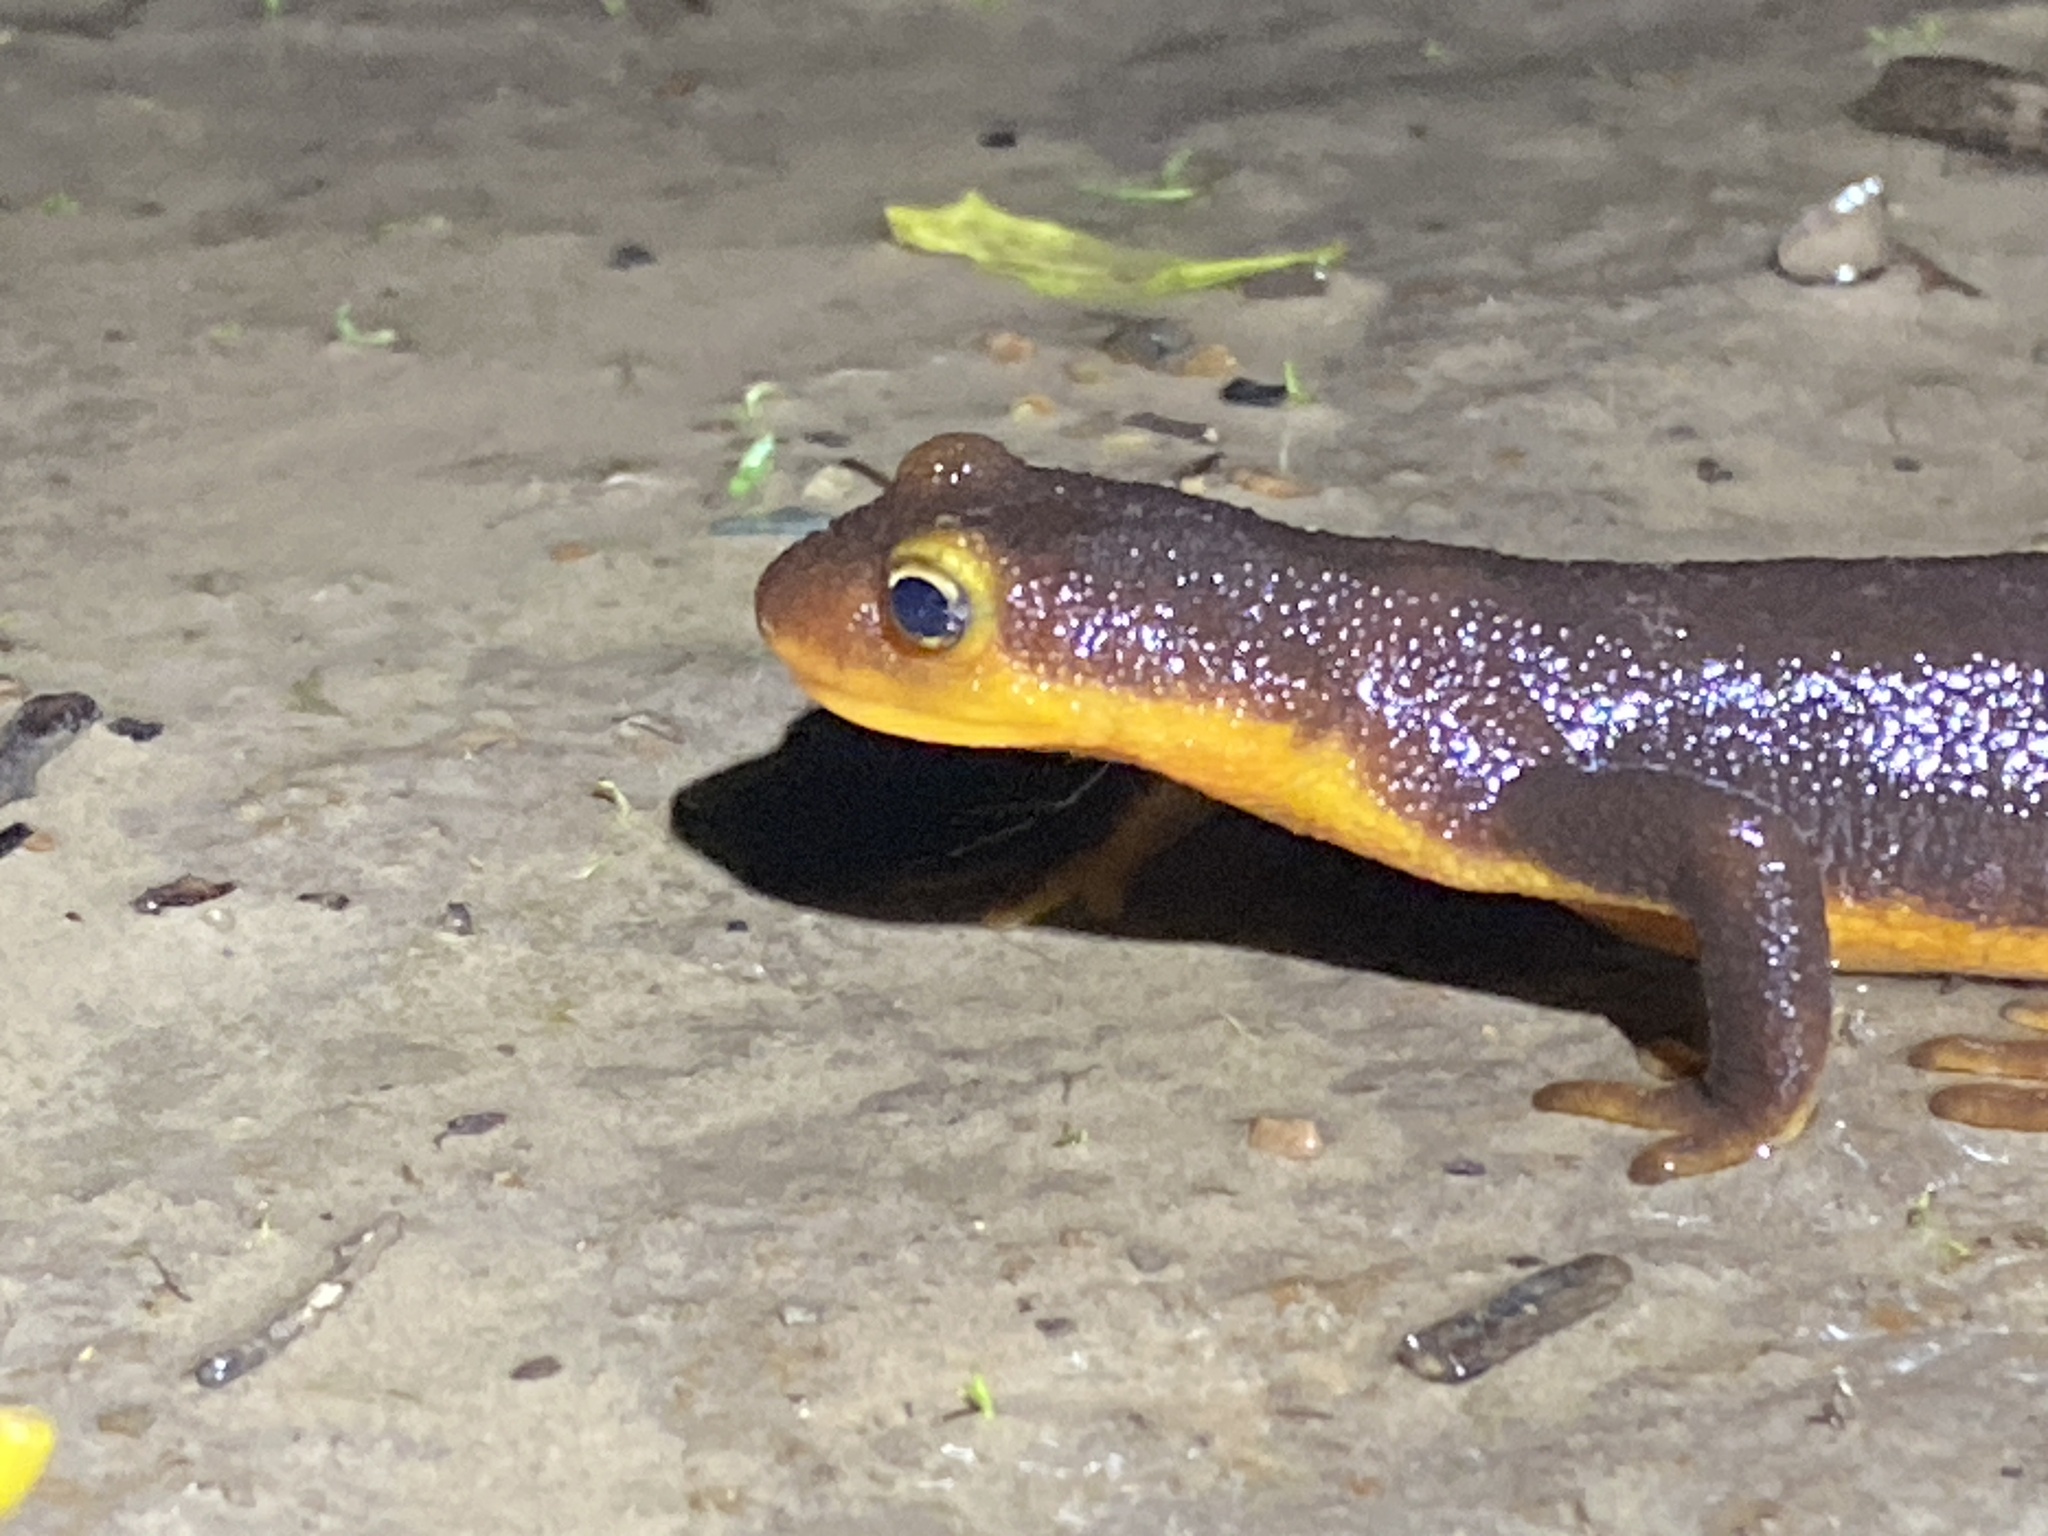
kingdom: Animalia
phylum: Chordata
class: Amphibia
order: Caudata
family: Salamandridae
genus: Taricha
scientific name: Taricha torosa
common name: California newt
